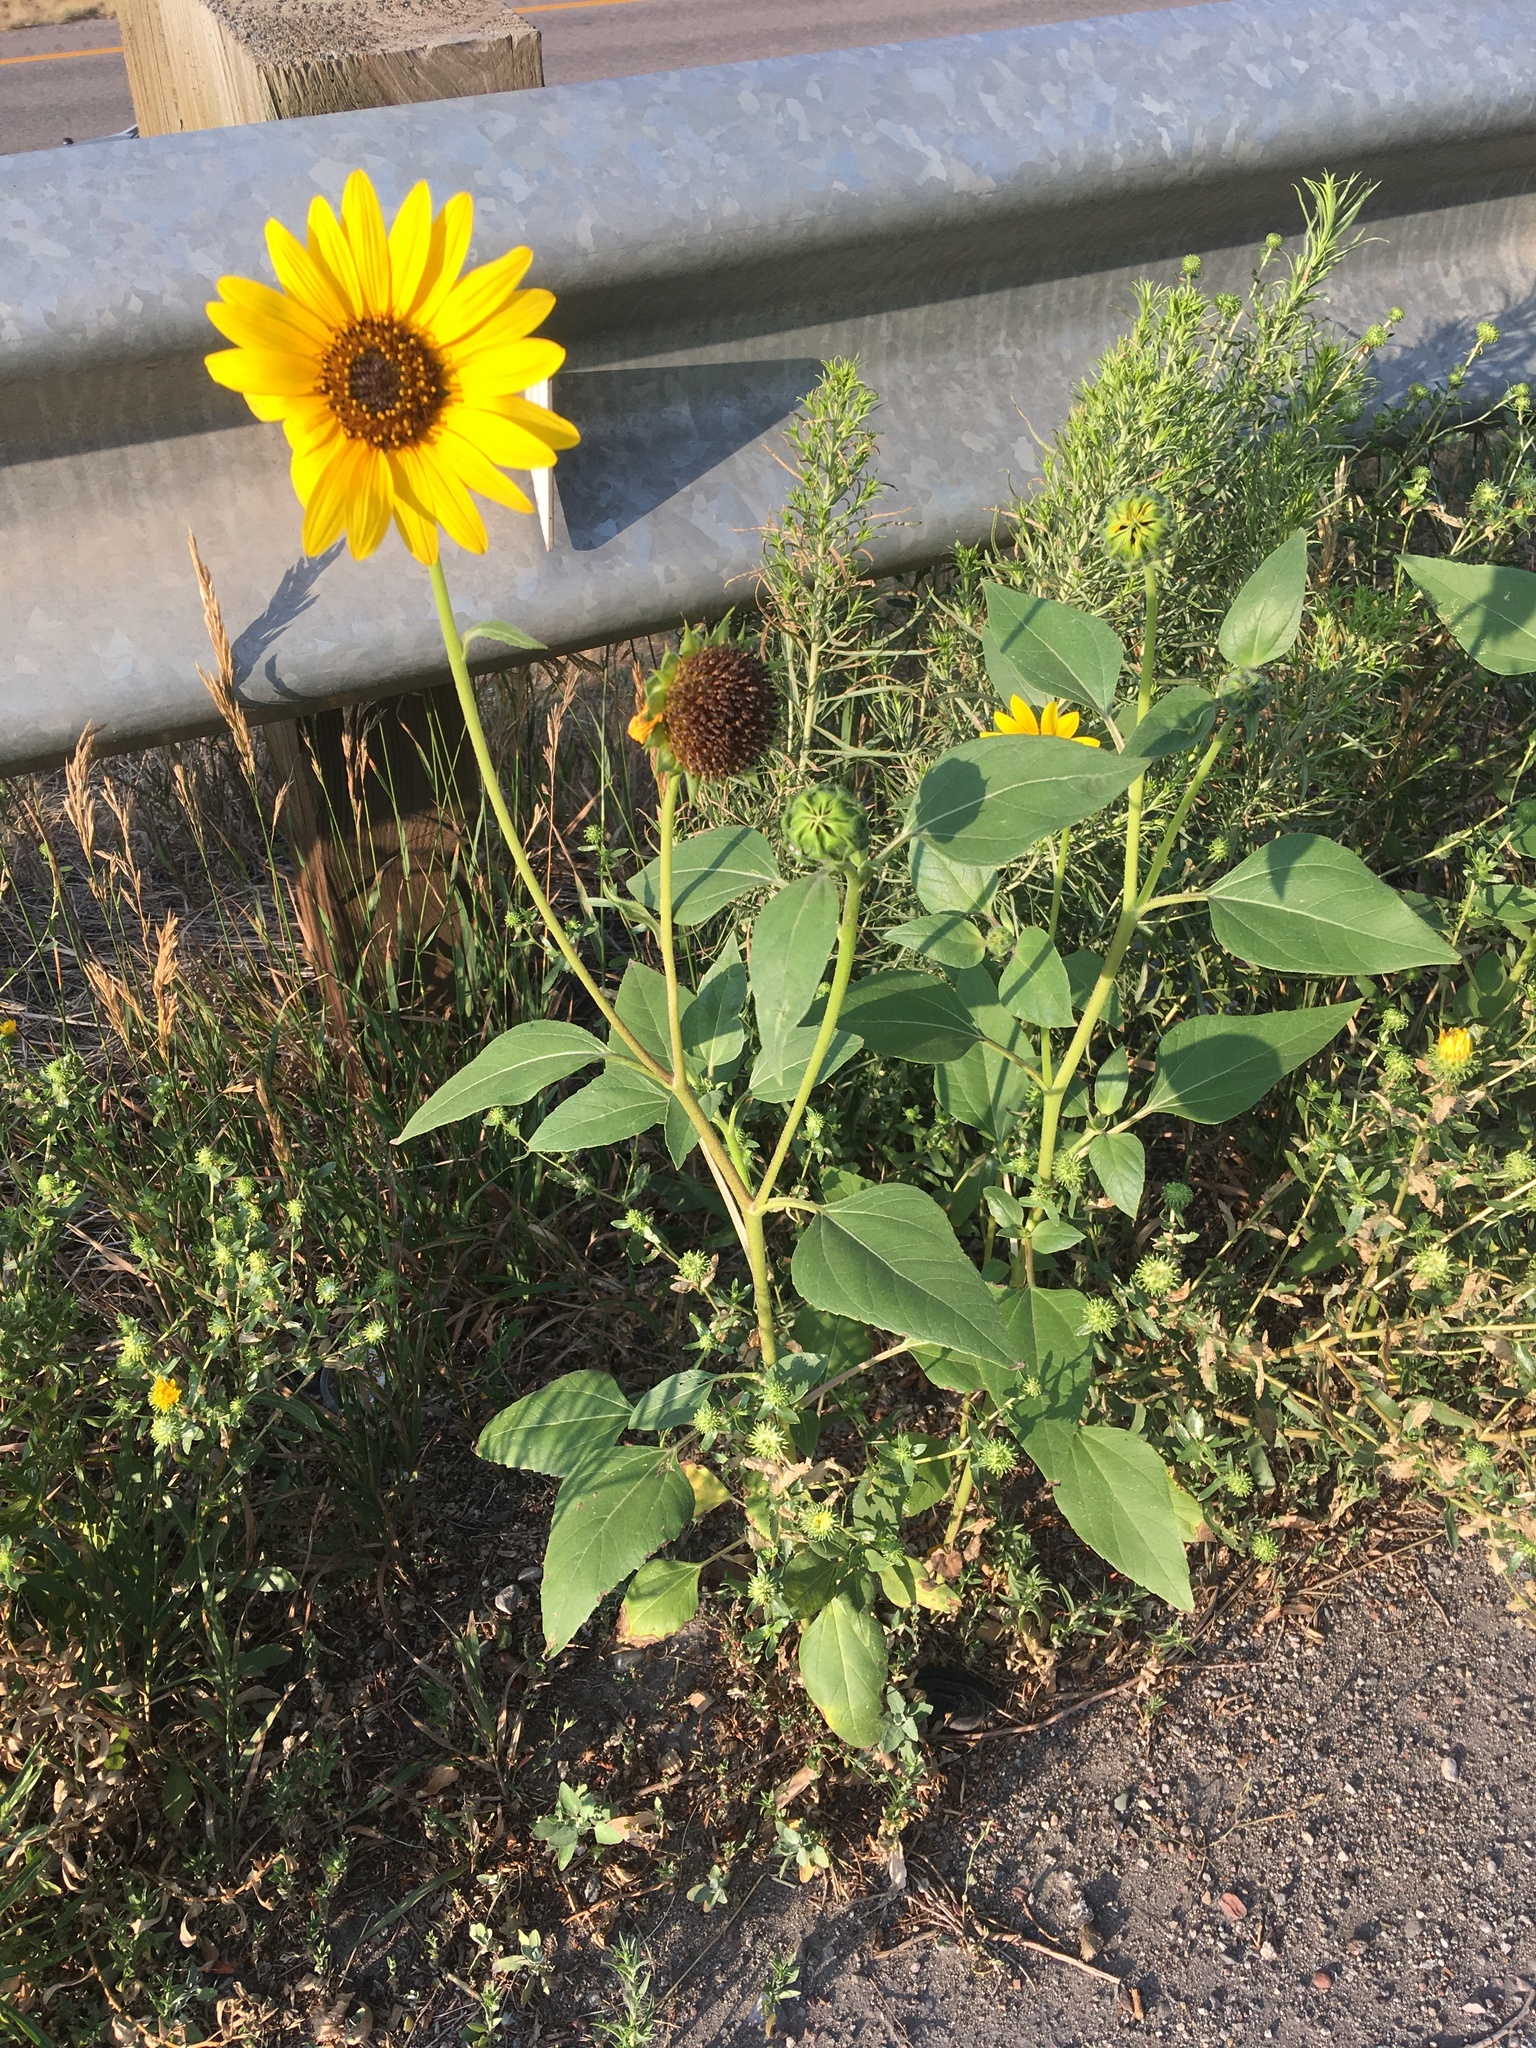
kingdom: Plantae
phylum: Tracheophyta
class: Magnoliopsida
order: Asterales
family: Asteraceae
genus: Helianthus
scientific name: Helianthus annuus
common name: Sunflower
